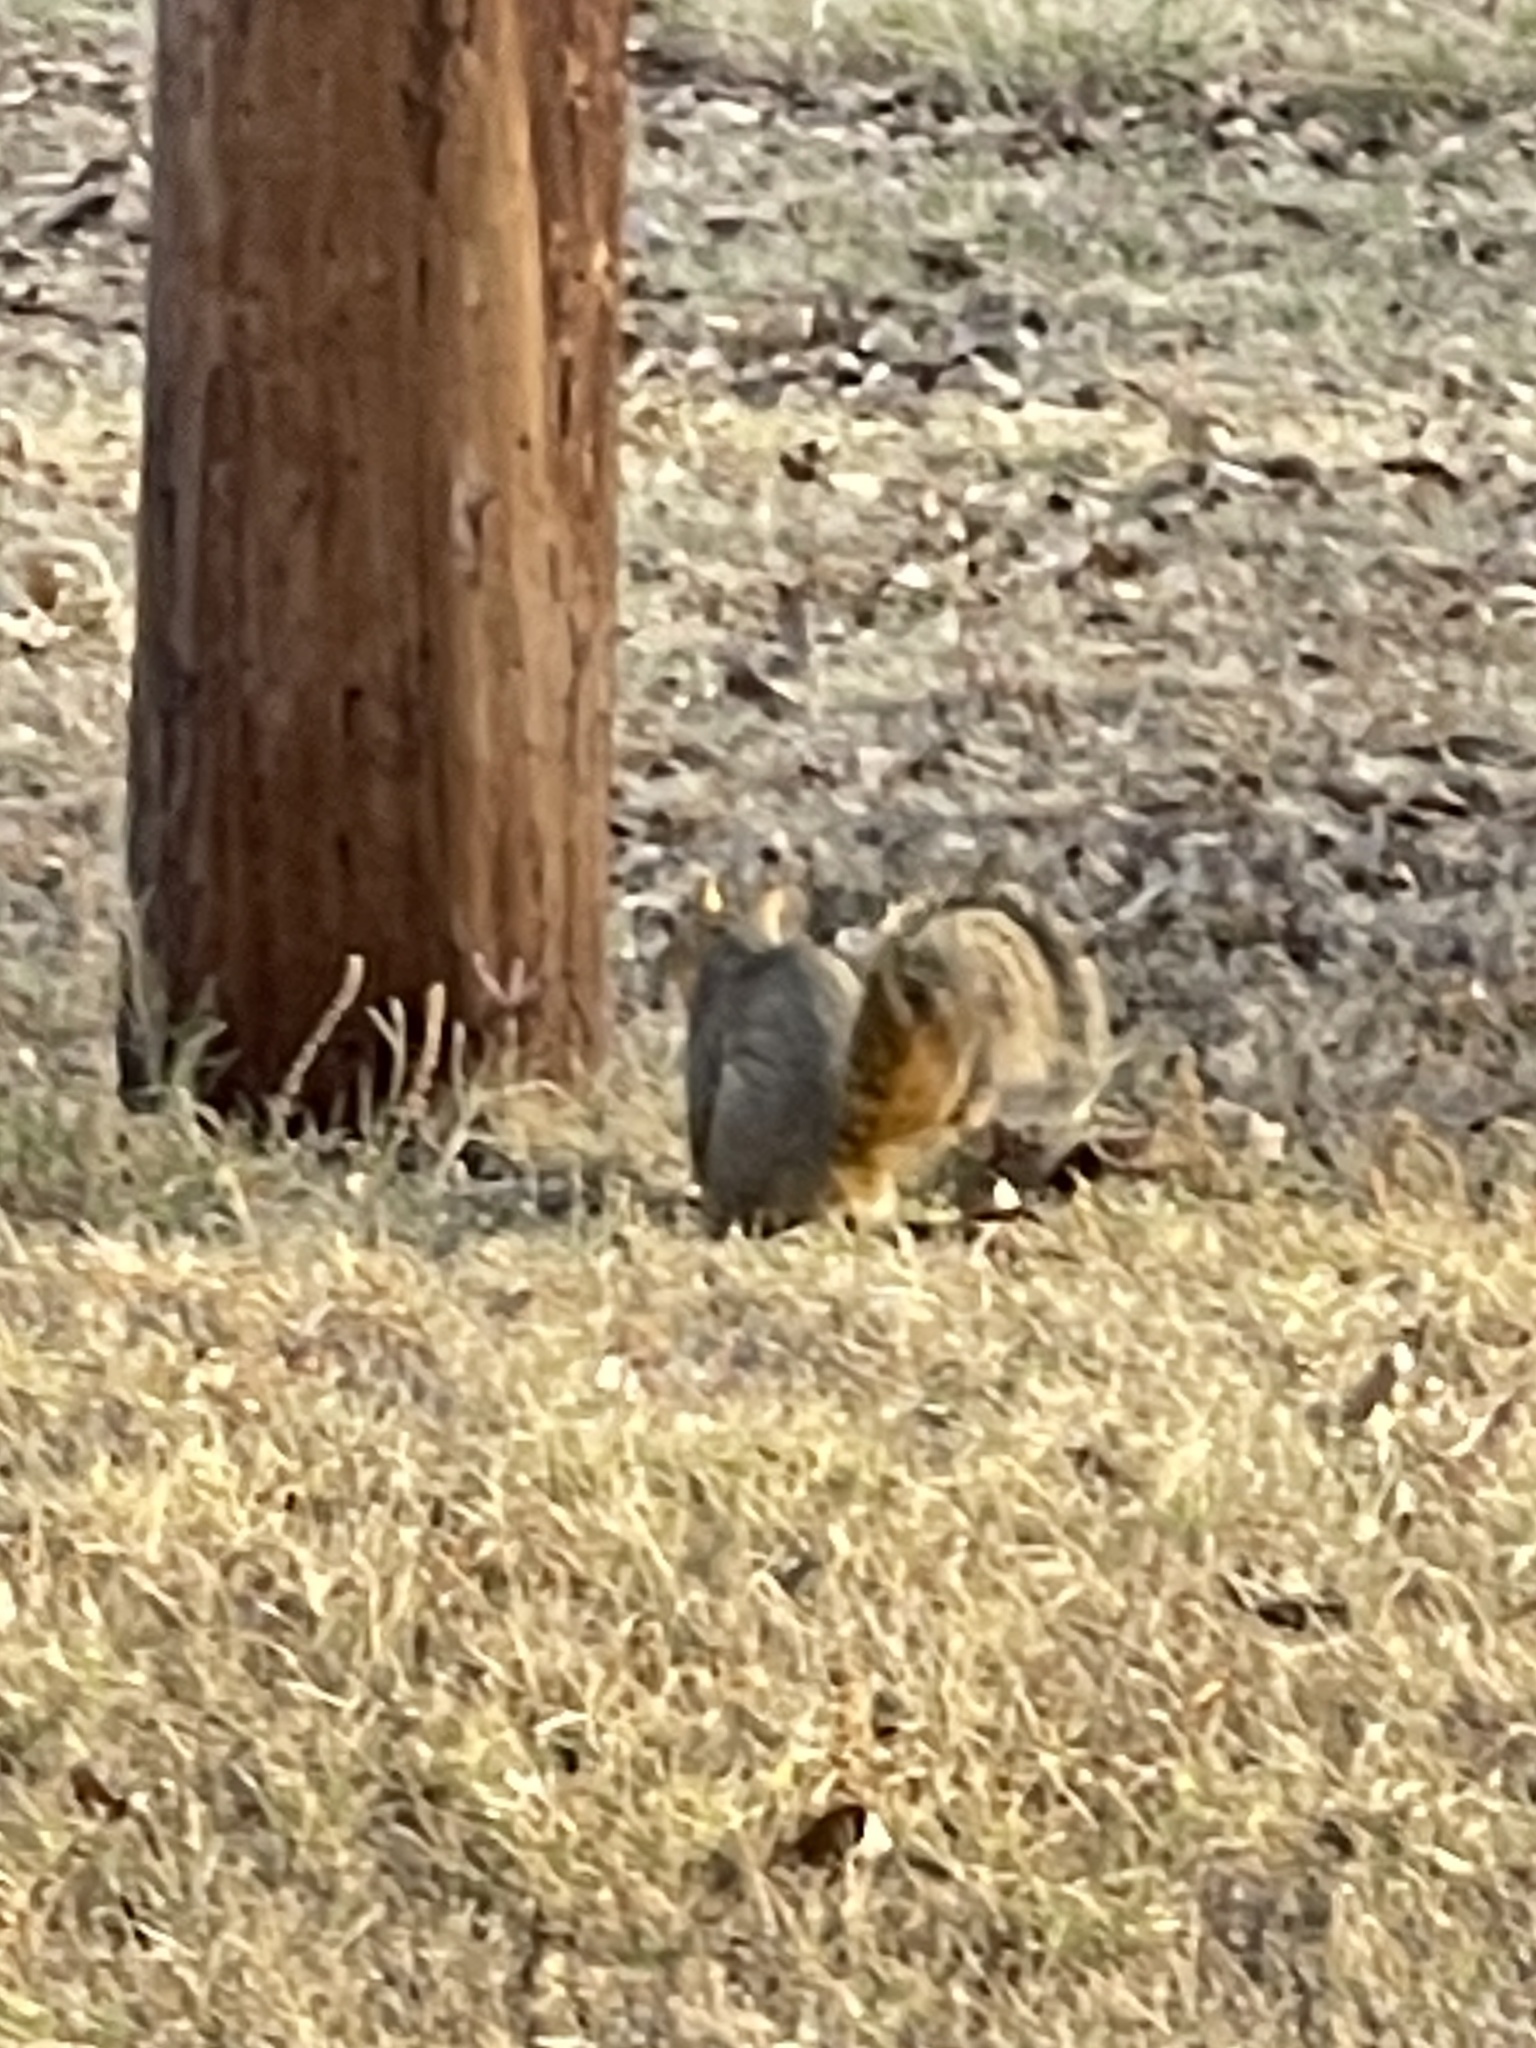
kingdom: Animalia
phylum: Chordata
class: Mammalia
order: Rodentia
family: Sciuridae
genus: Sciurus
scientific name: Sciurus niger
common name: Fox squirrel
